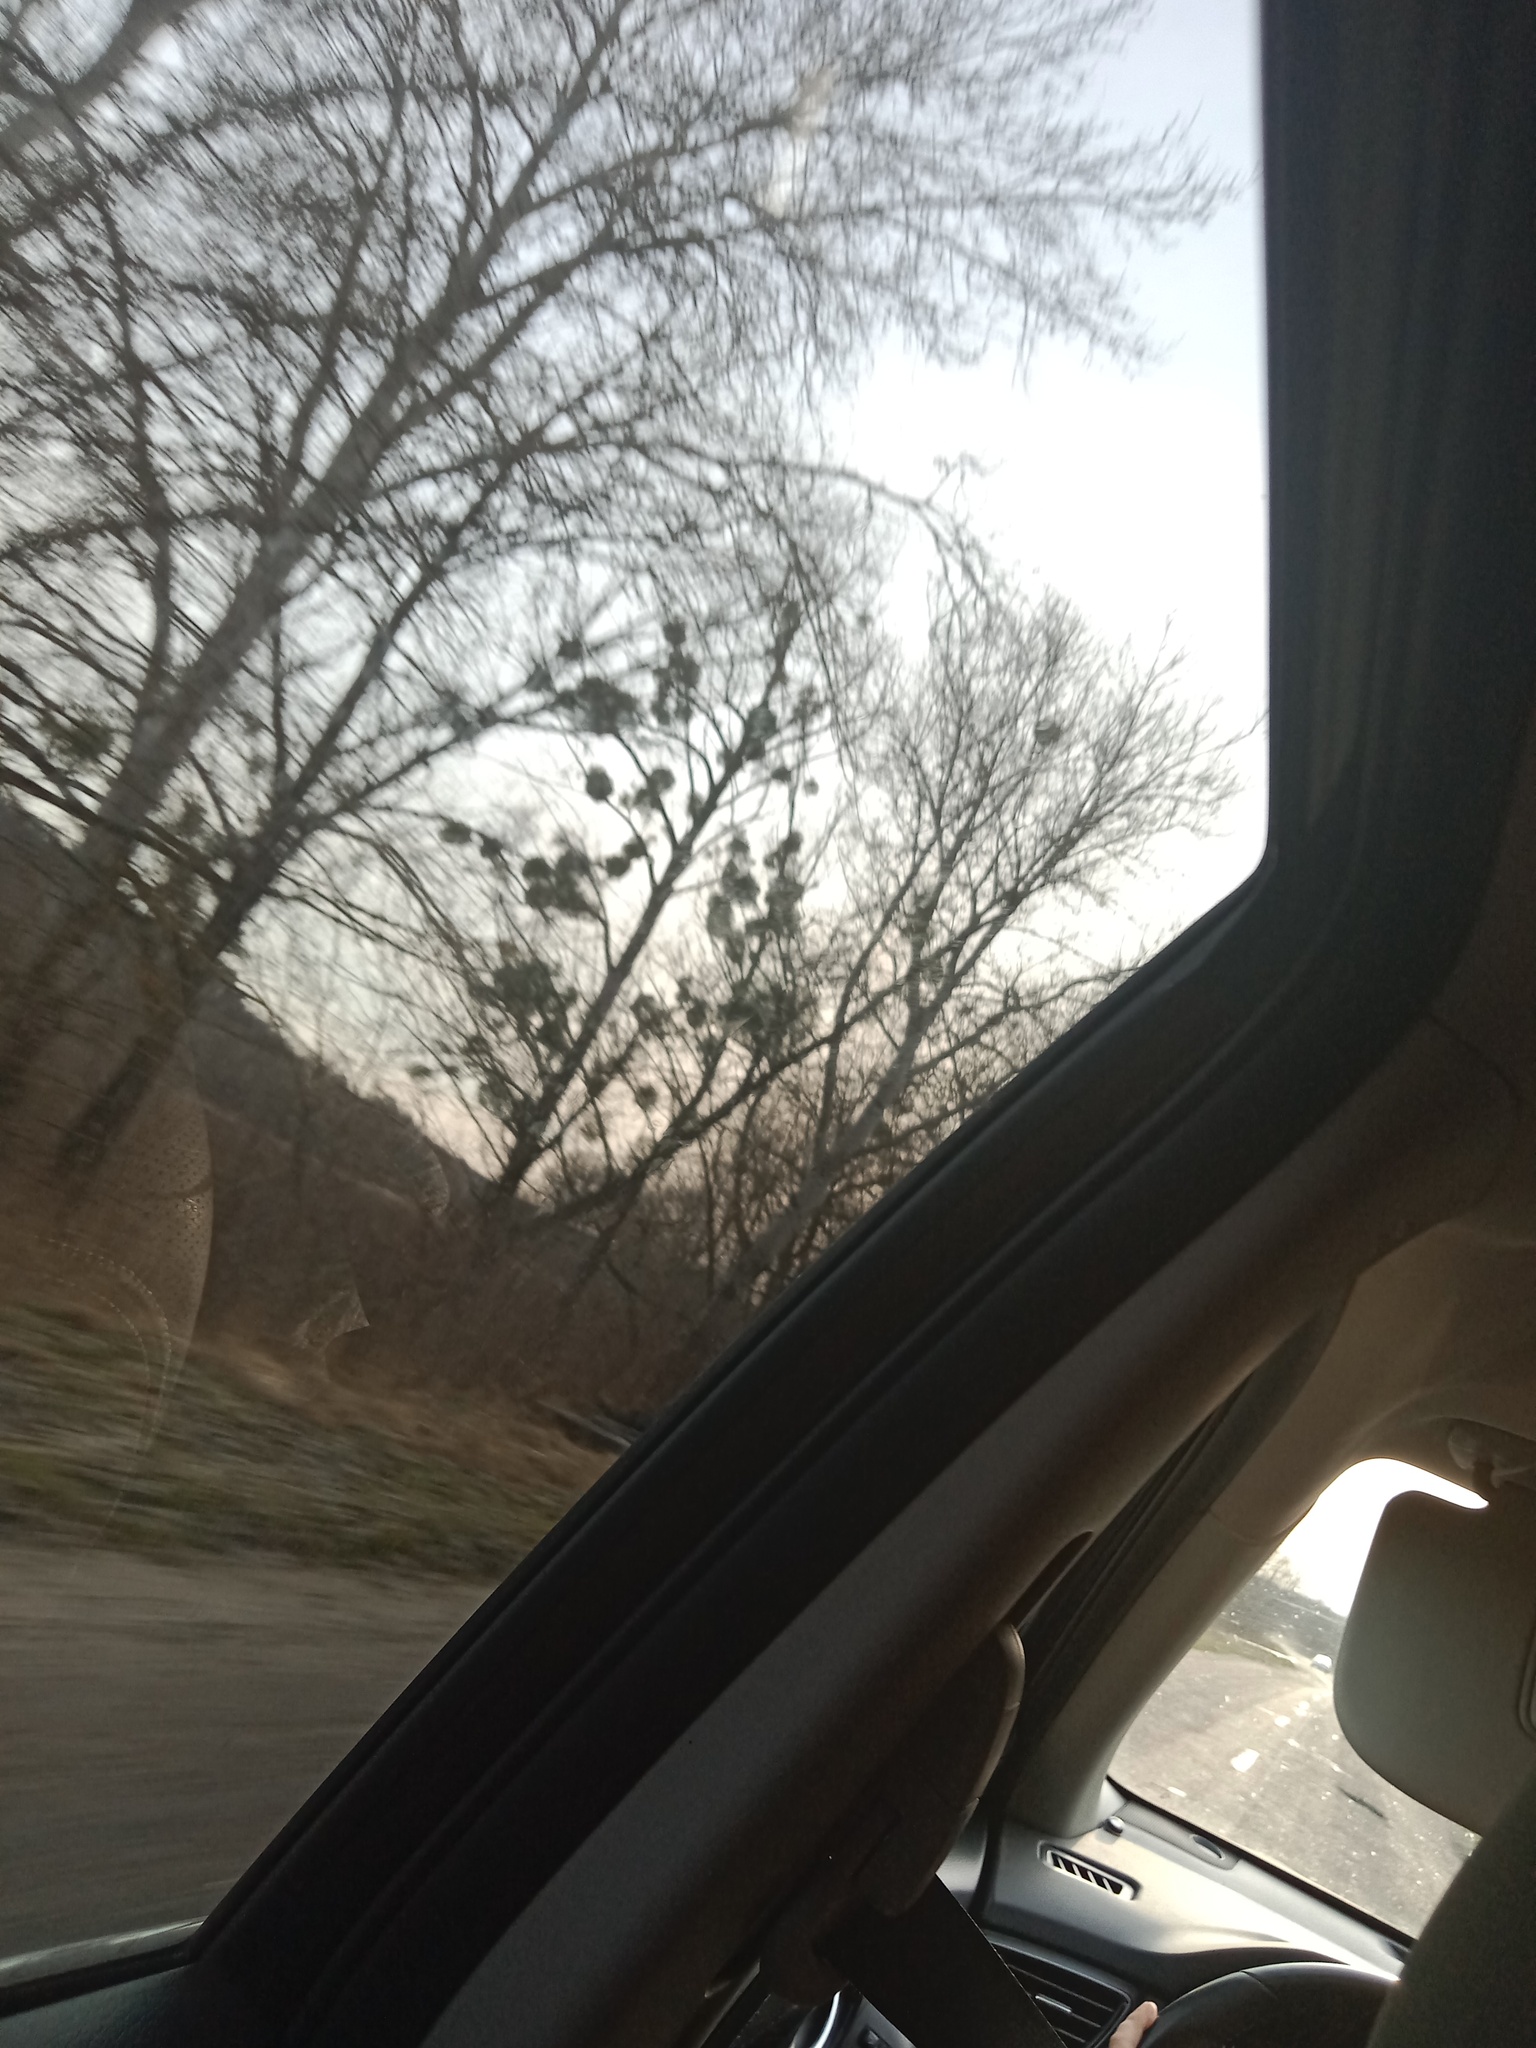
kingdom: Plantae
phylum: Tracheophyta
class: Magnoliopsida
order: Santalales
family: Viscaceae
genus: Viscum
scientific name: Viscum album
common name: Mistletoe
